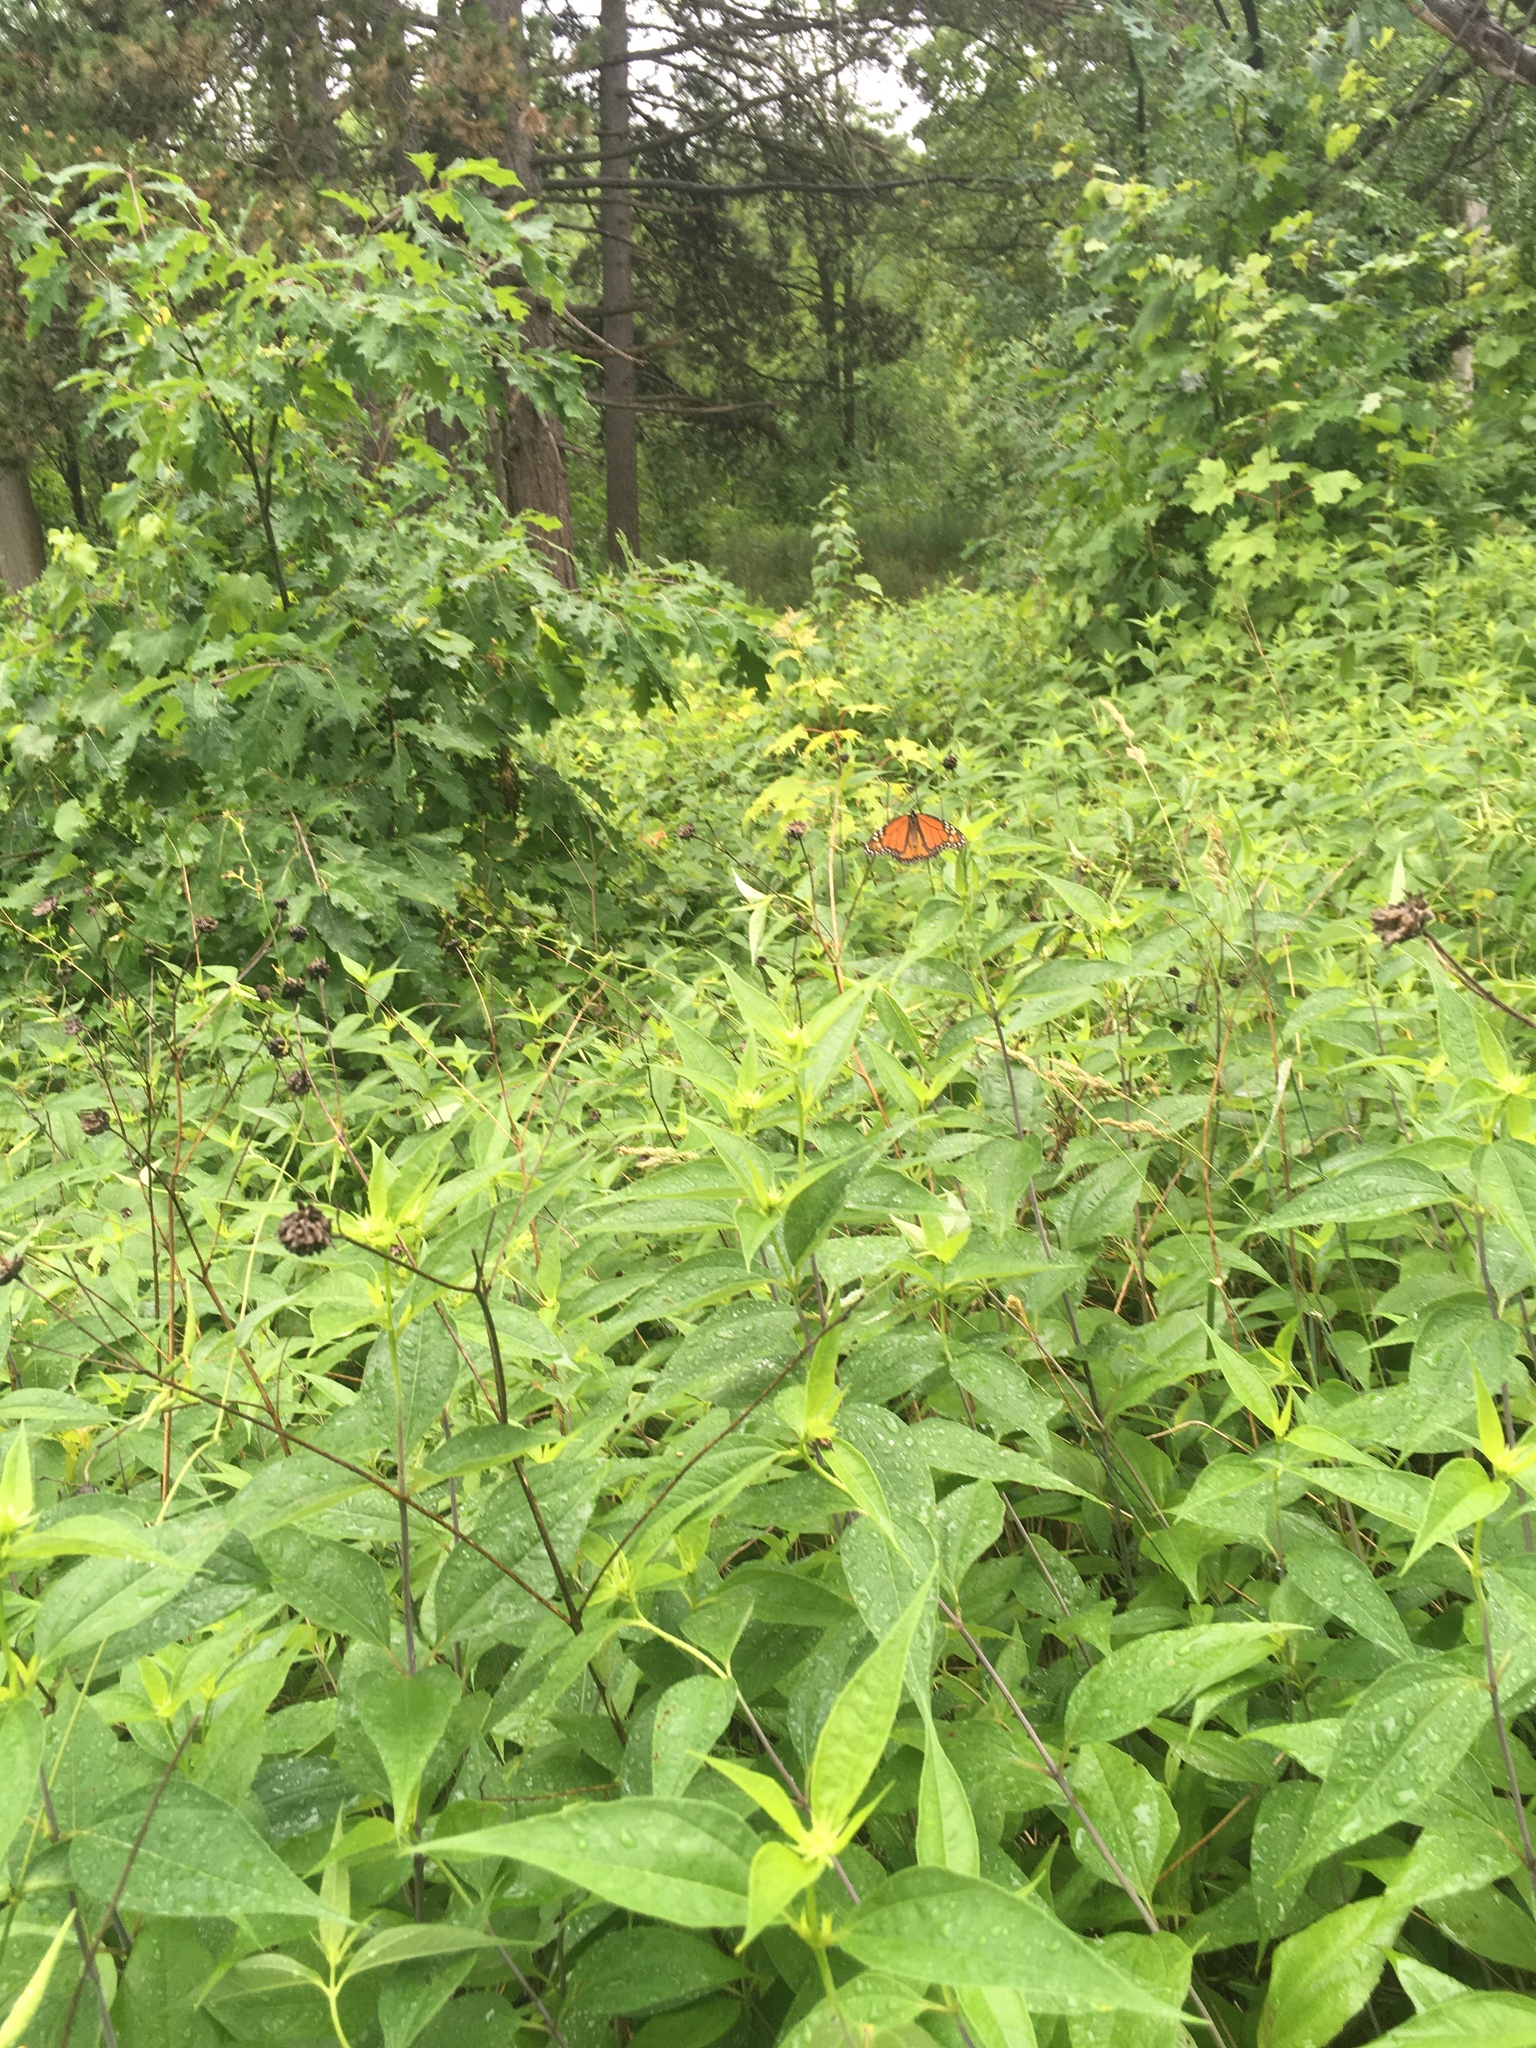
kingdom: Animalia
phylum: Arthropoda
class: Insecta
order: Lepidoptera
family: Nymphalidae
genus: Danaus
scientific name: Danaus plexippus
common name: Monarch
